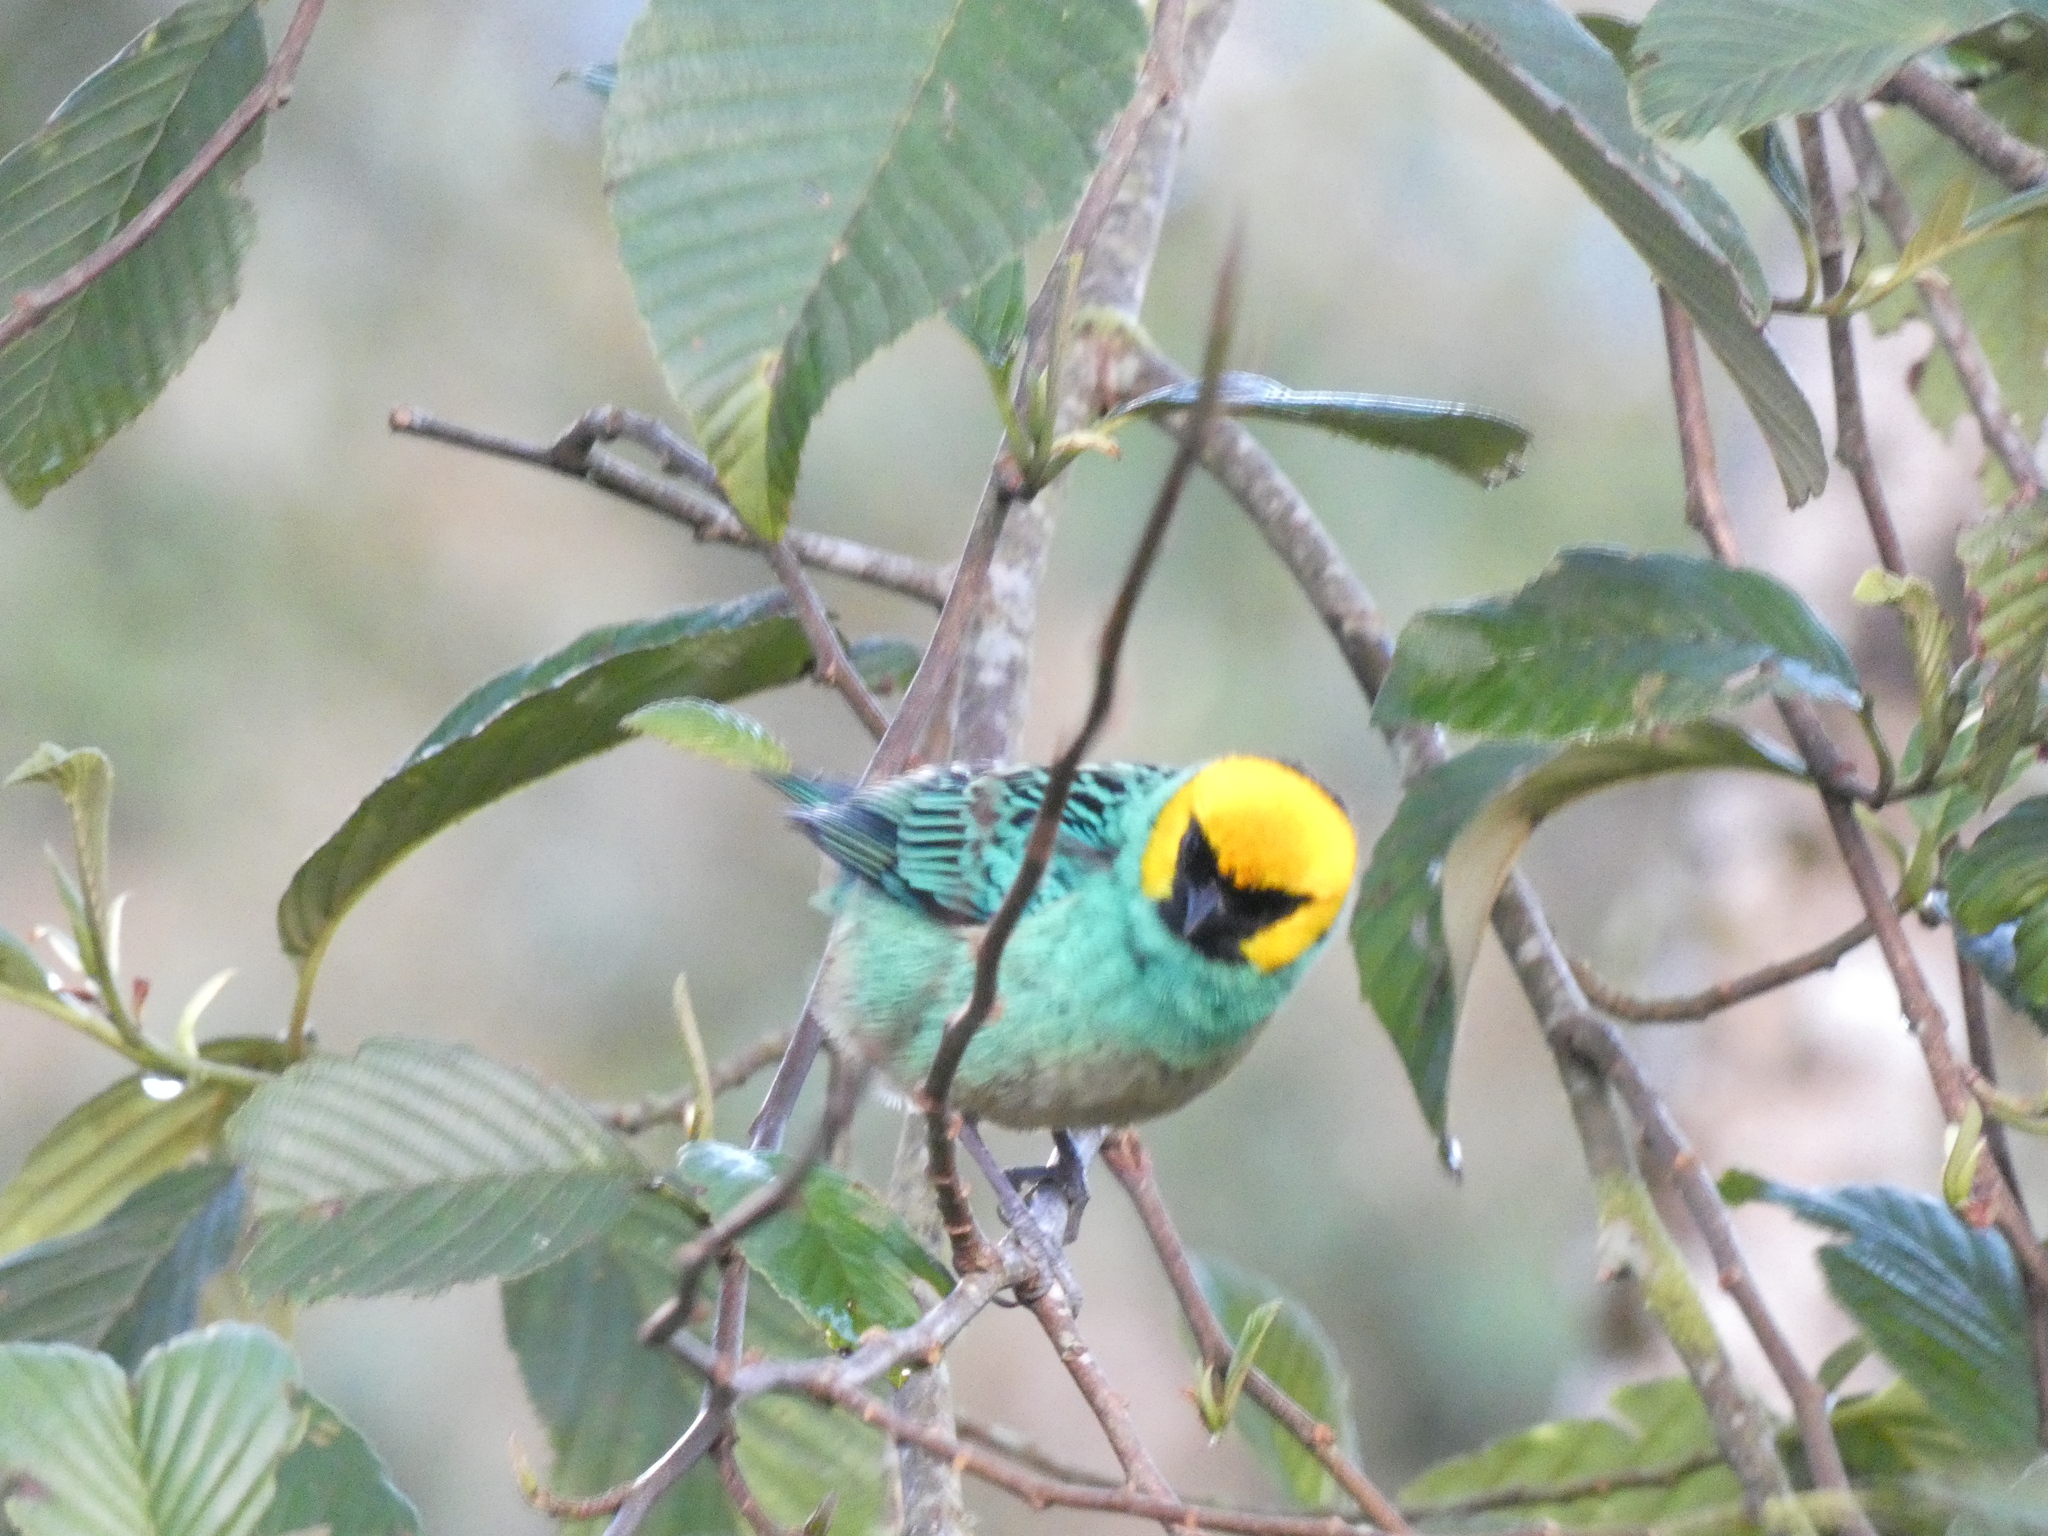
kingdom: Animalia
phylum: Chordata
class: Aves
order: Passeriformes
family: Thraupidae
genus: Tangara
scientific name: Tangara xanthocephala
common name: Saffron-crowned tanager
